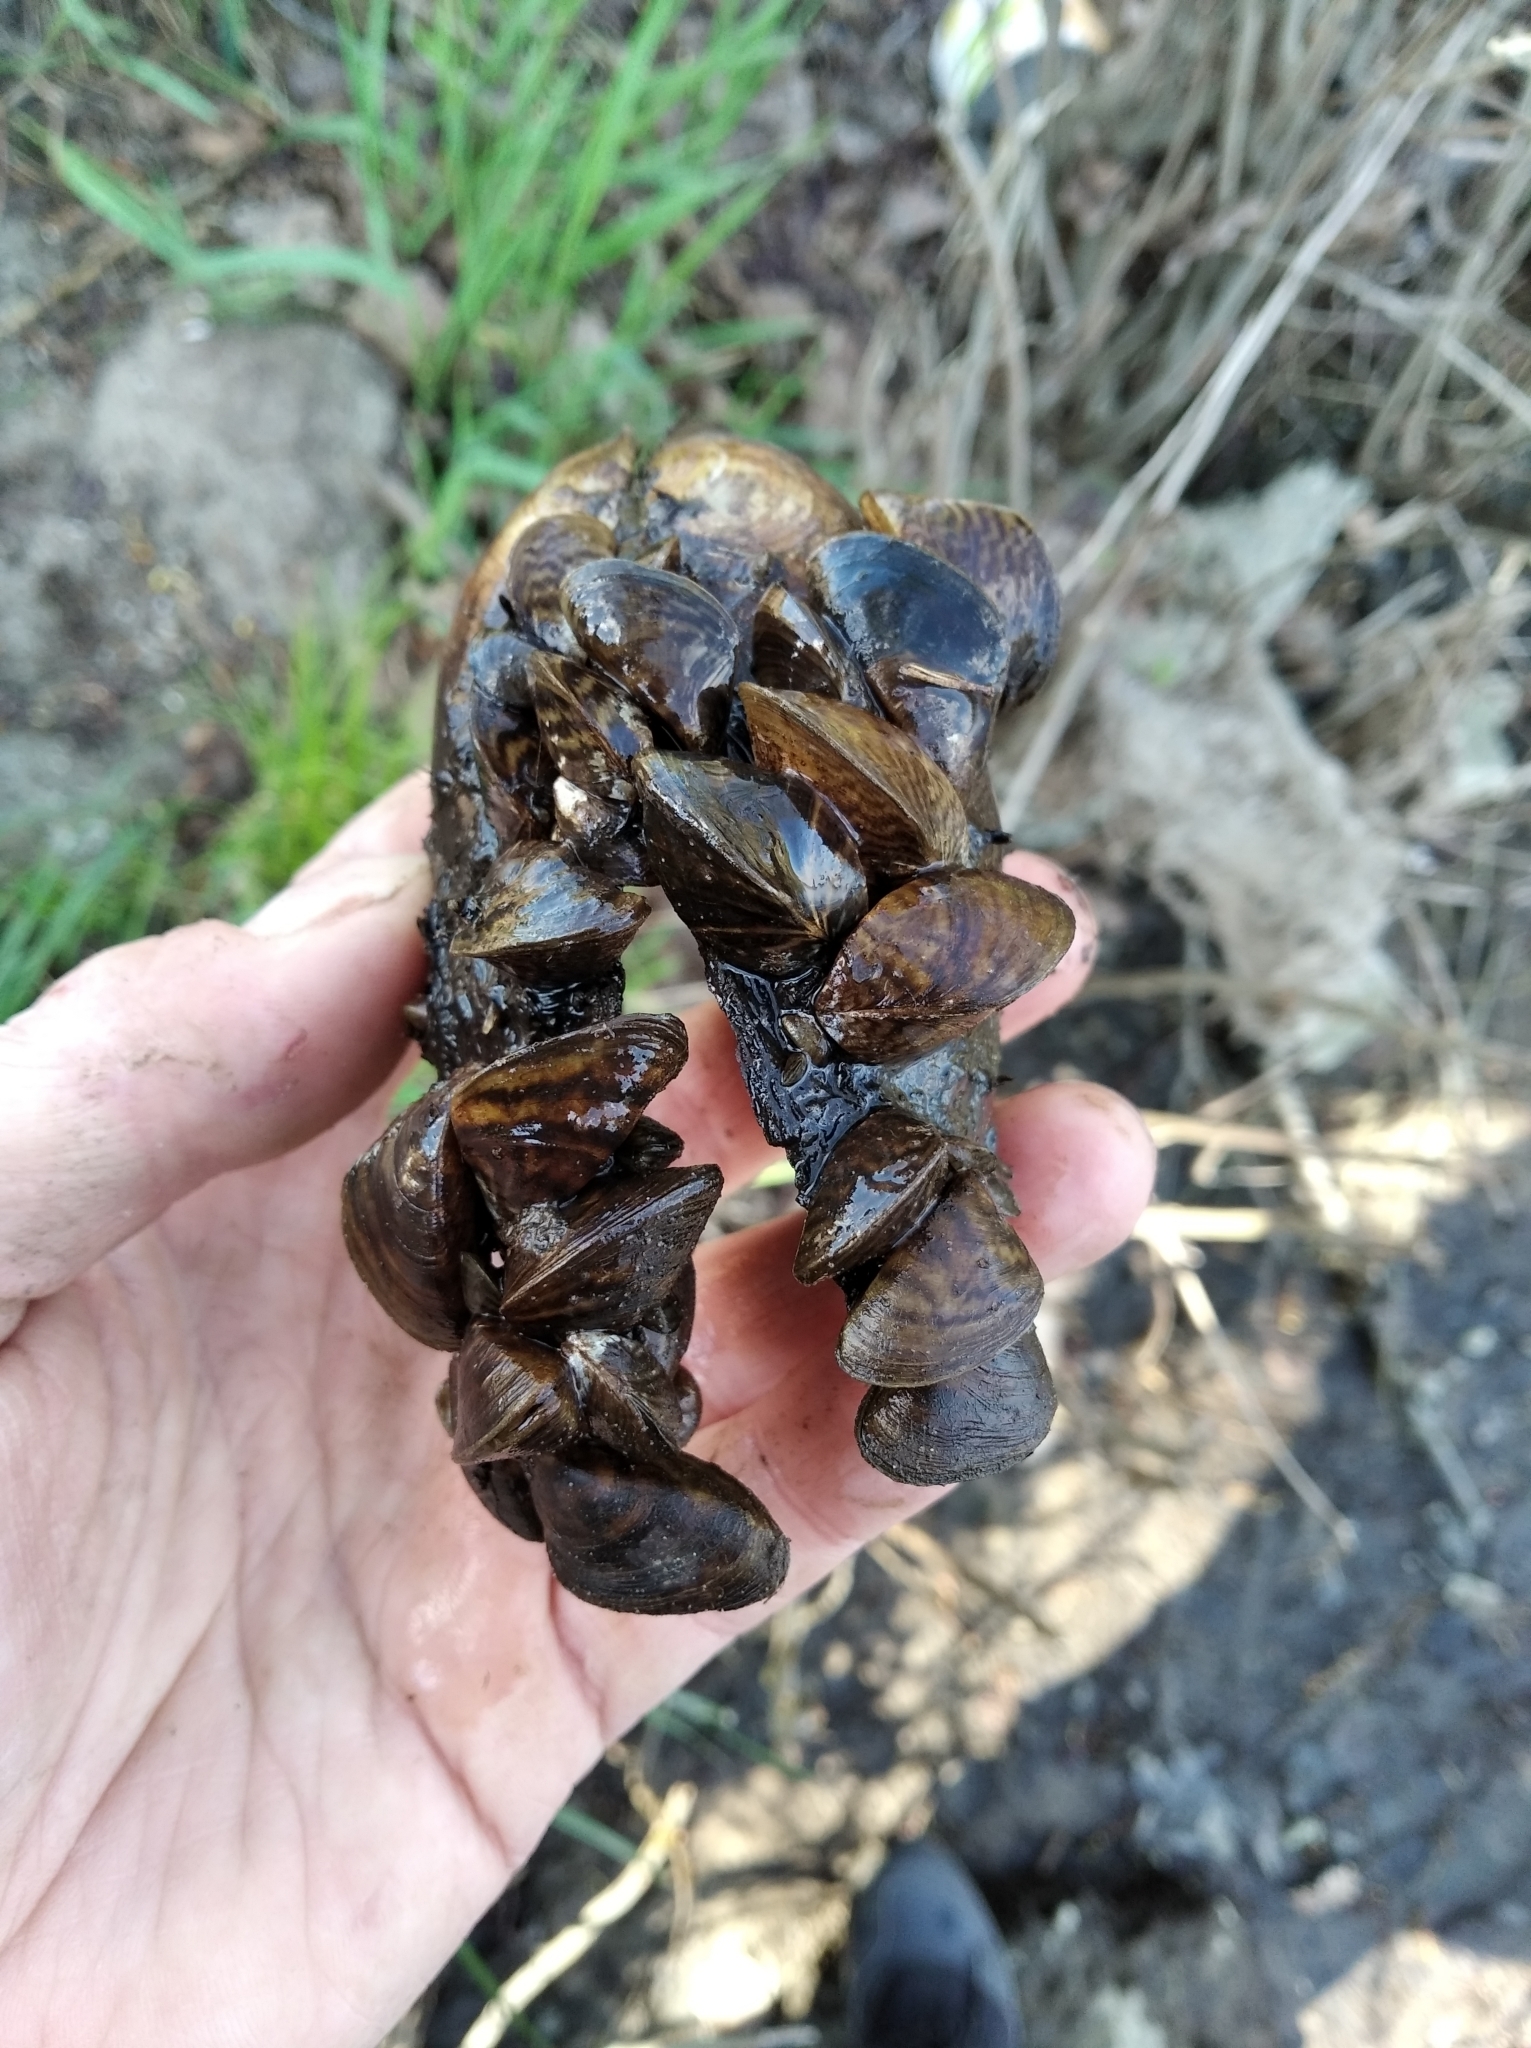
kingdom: Animalia
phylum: Mollusca
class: Bivalvia
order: Myida
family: Dreissenidae
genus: Dreissena
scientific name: Dreissena polymorpha
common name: Zebra mussel
